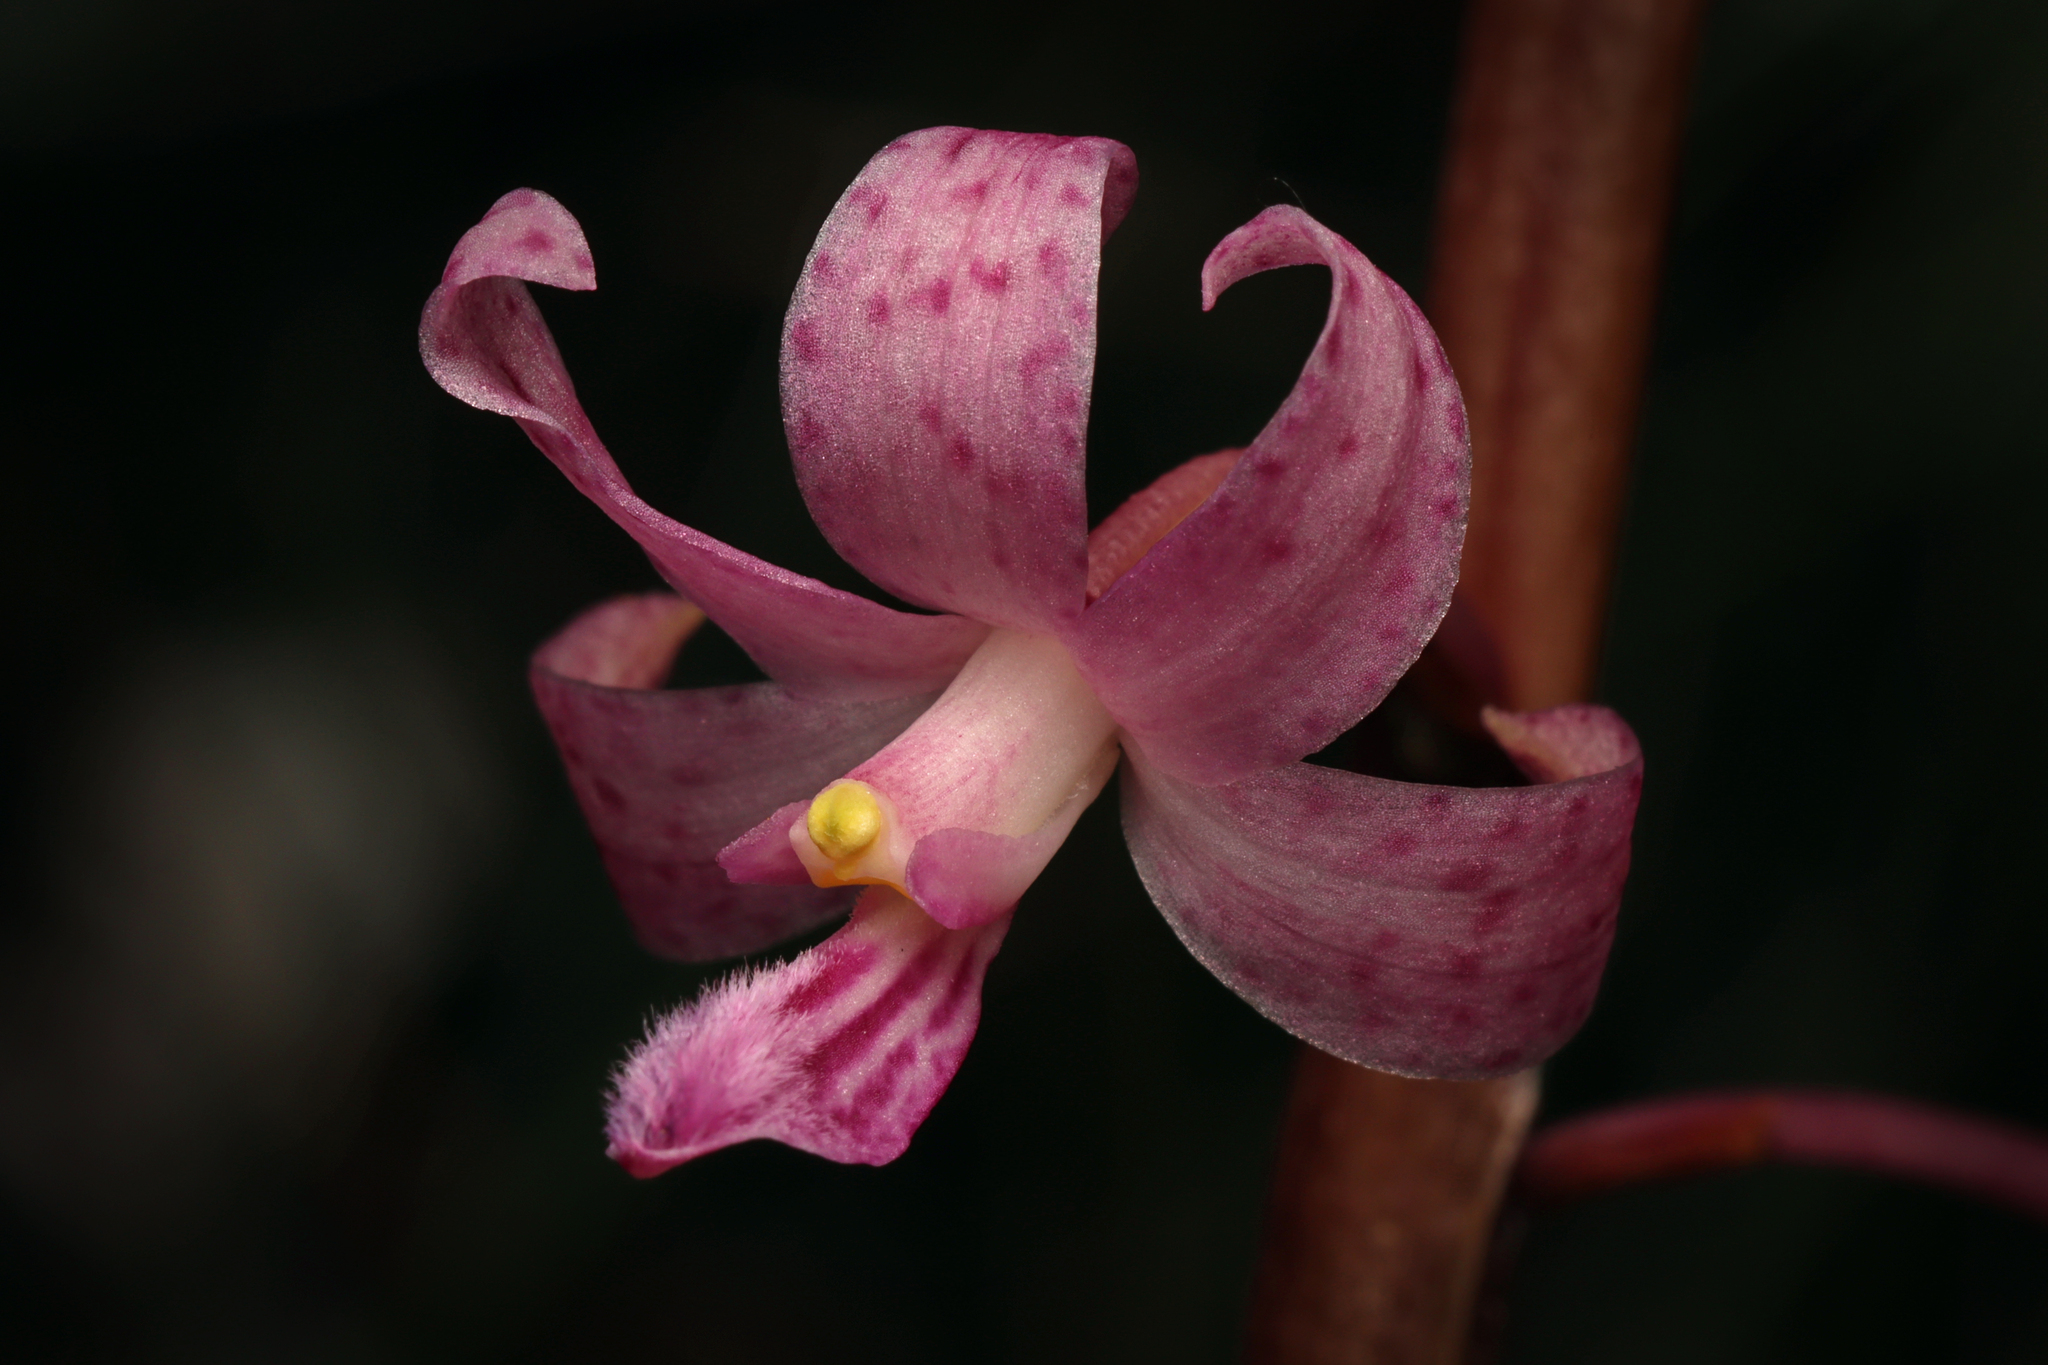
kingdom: Plantae
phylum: Tracheophyta
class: Liliopsida
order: Asparagales
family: Orchidaceae
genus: Dipodium
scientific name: Dipodium roseum
